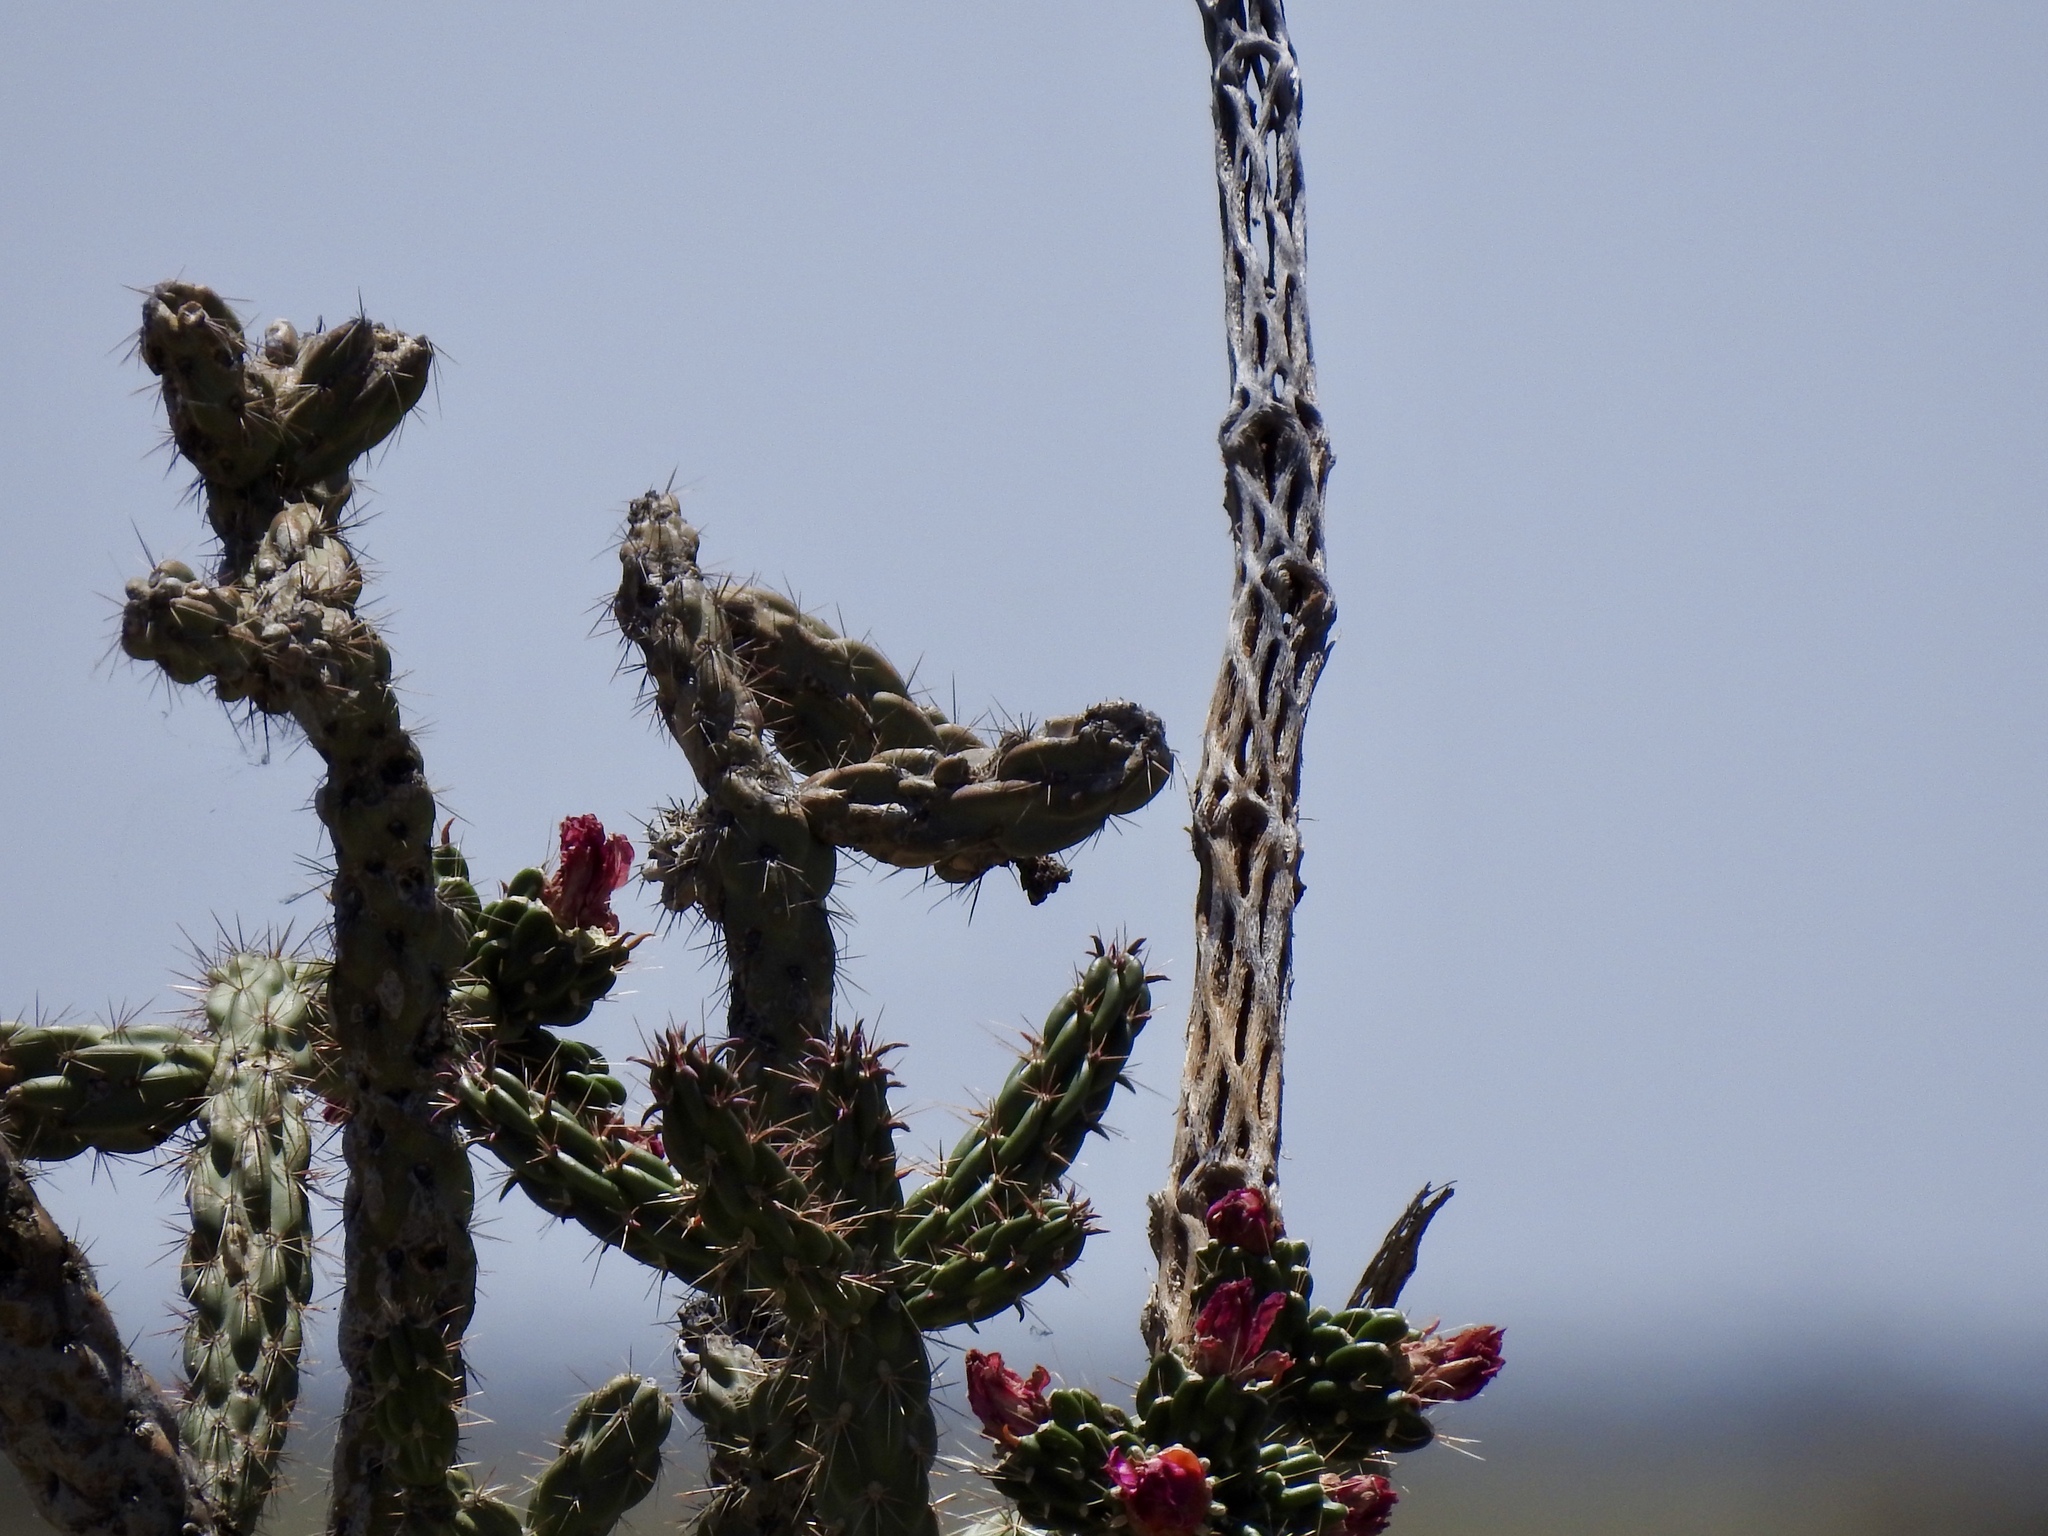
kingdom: Plantae
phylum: Tracheophyta
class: Magnoliopsida
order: Caryophyllales
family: Cactaceae
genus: Cylindropuntia
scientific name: Cylindropuntia imbricata
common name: Candelabrum cactus
